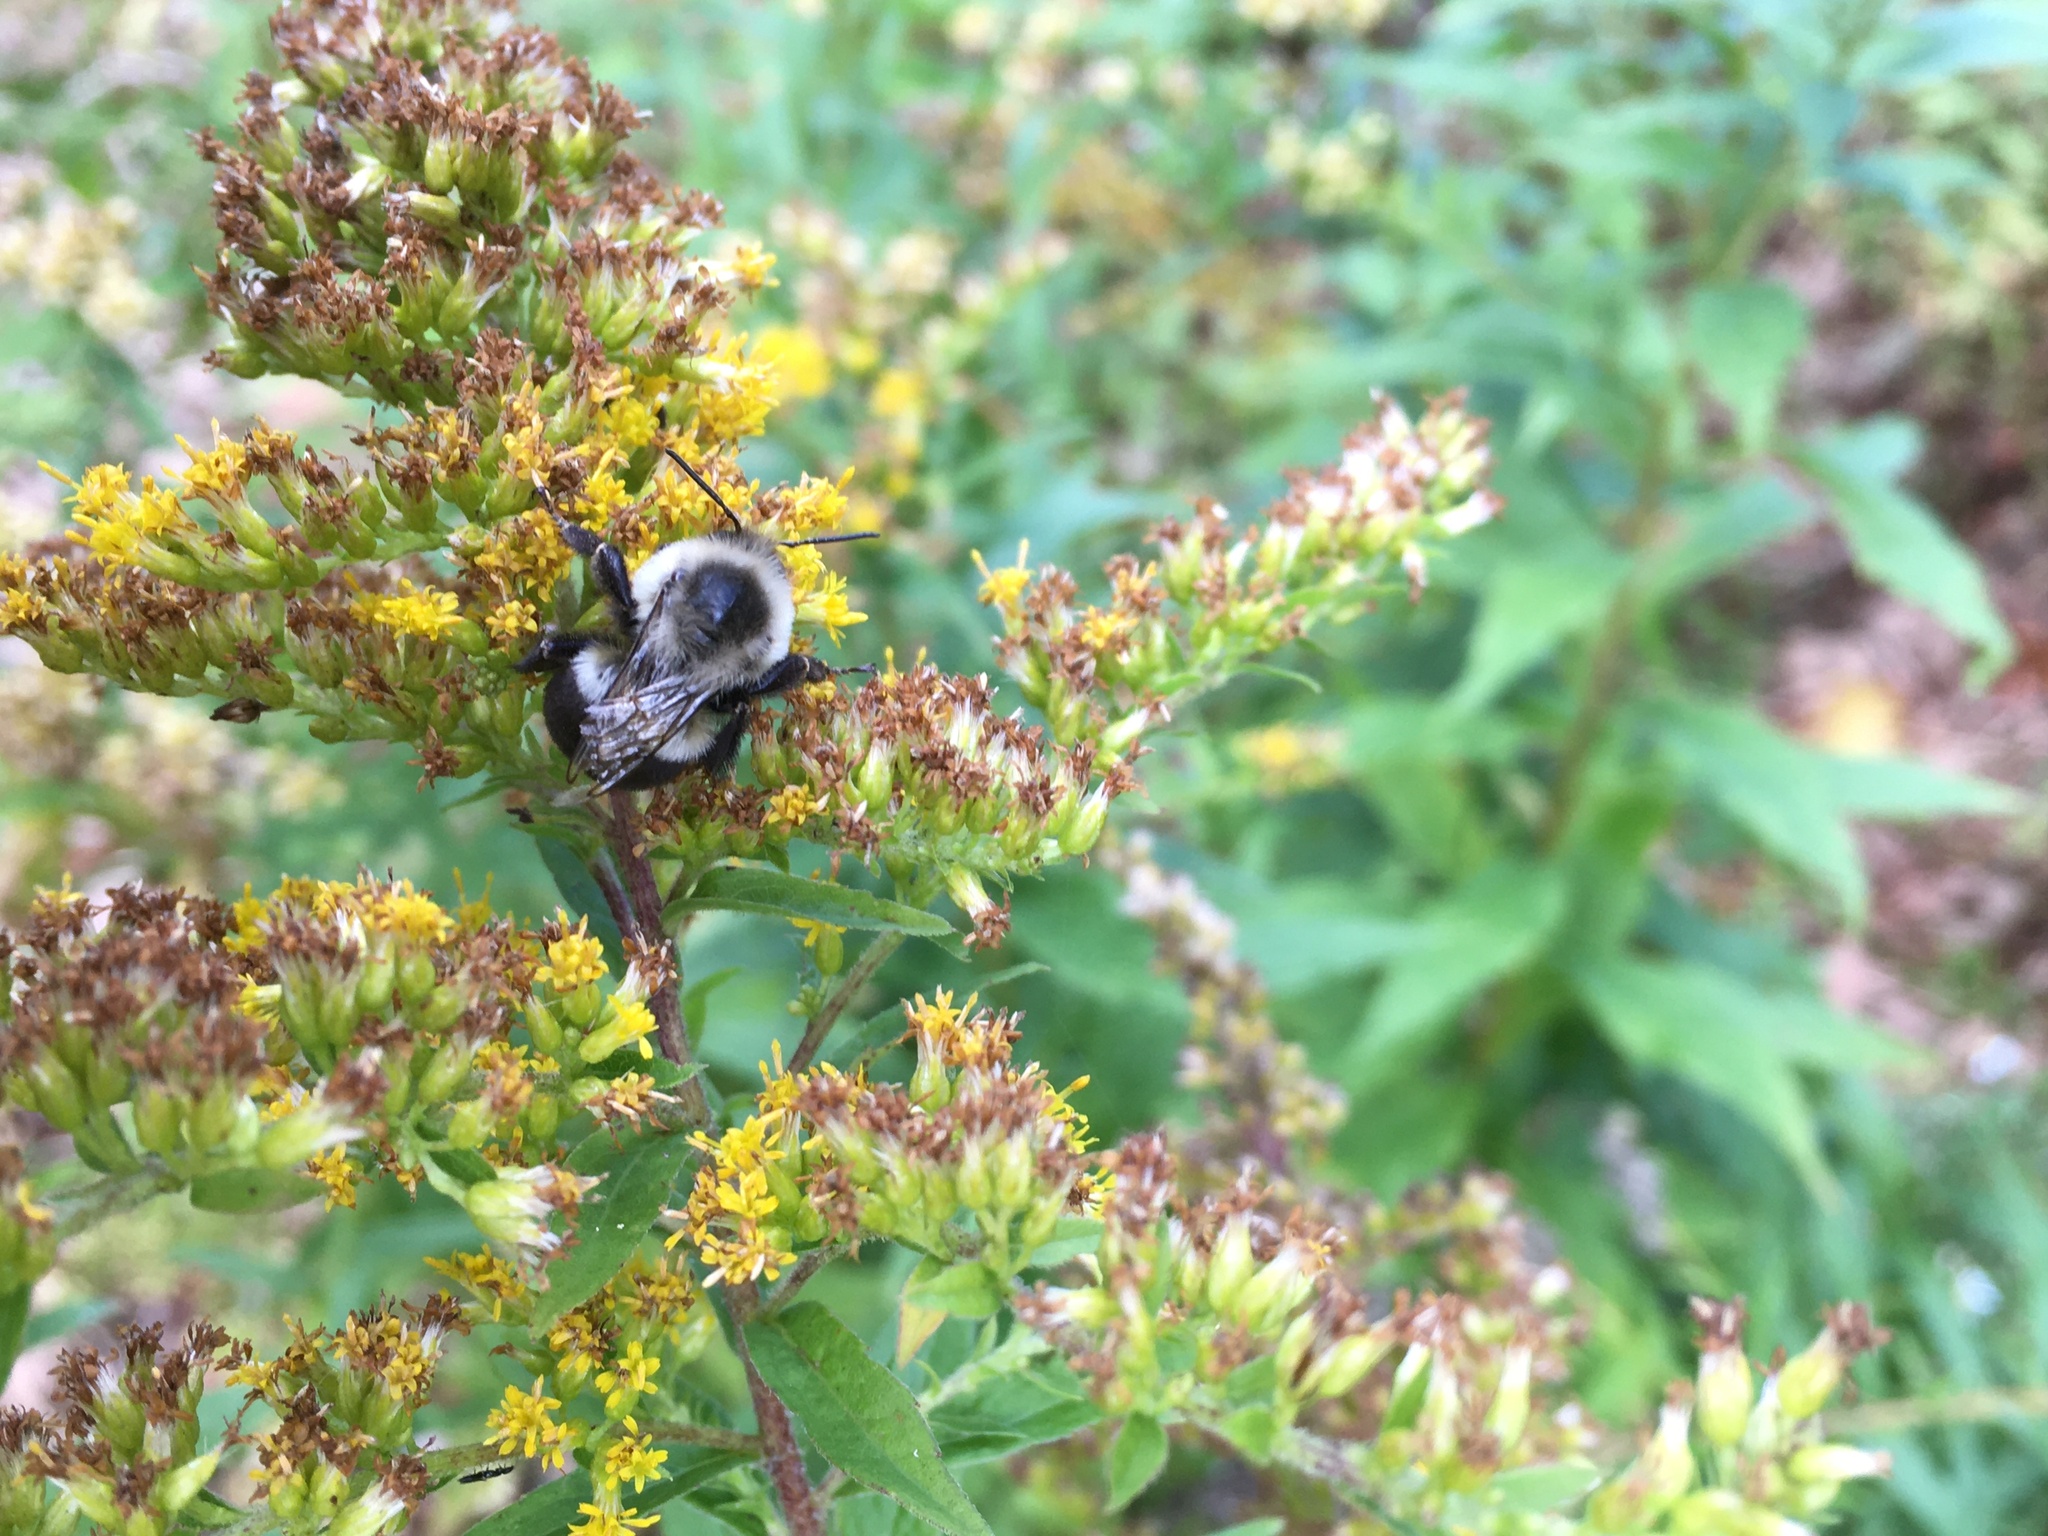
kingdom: Animalia
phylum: Arthropoda
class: Insecta
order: Hymenoptera
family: Apidae
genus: Bombus
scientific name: Bombus impatiens
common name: Common eastern bumble bee
